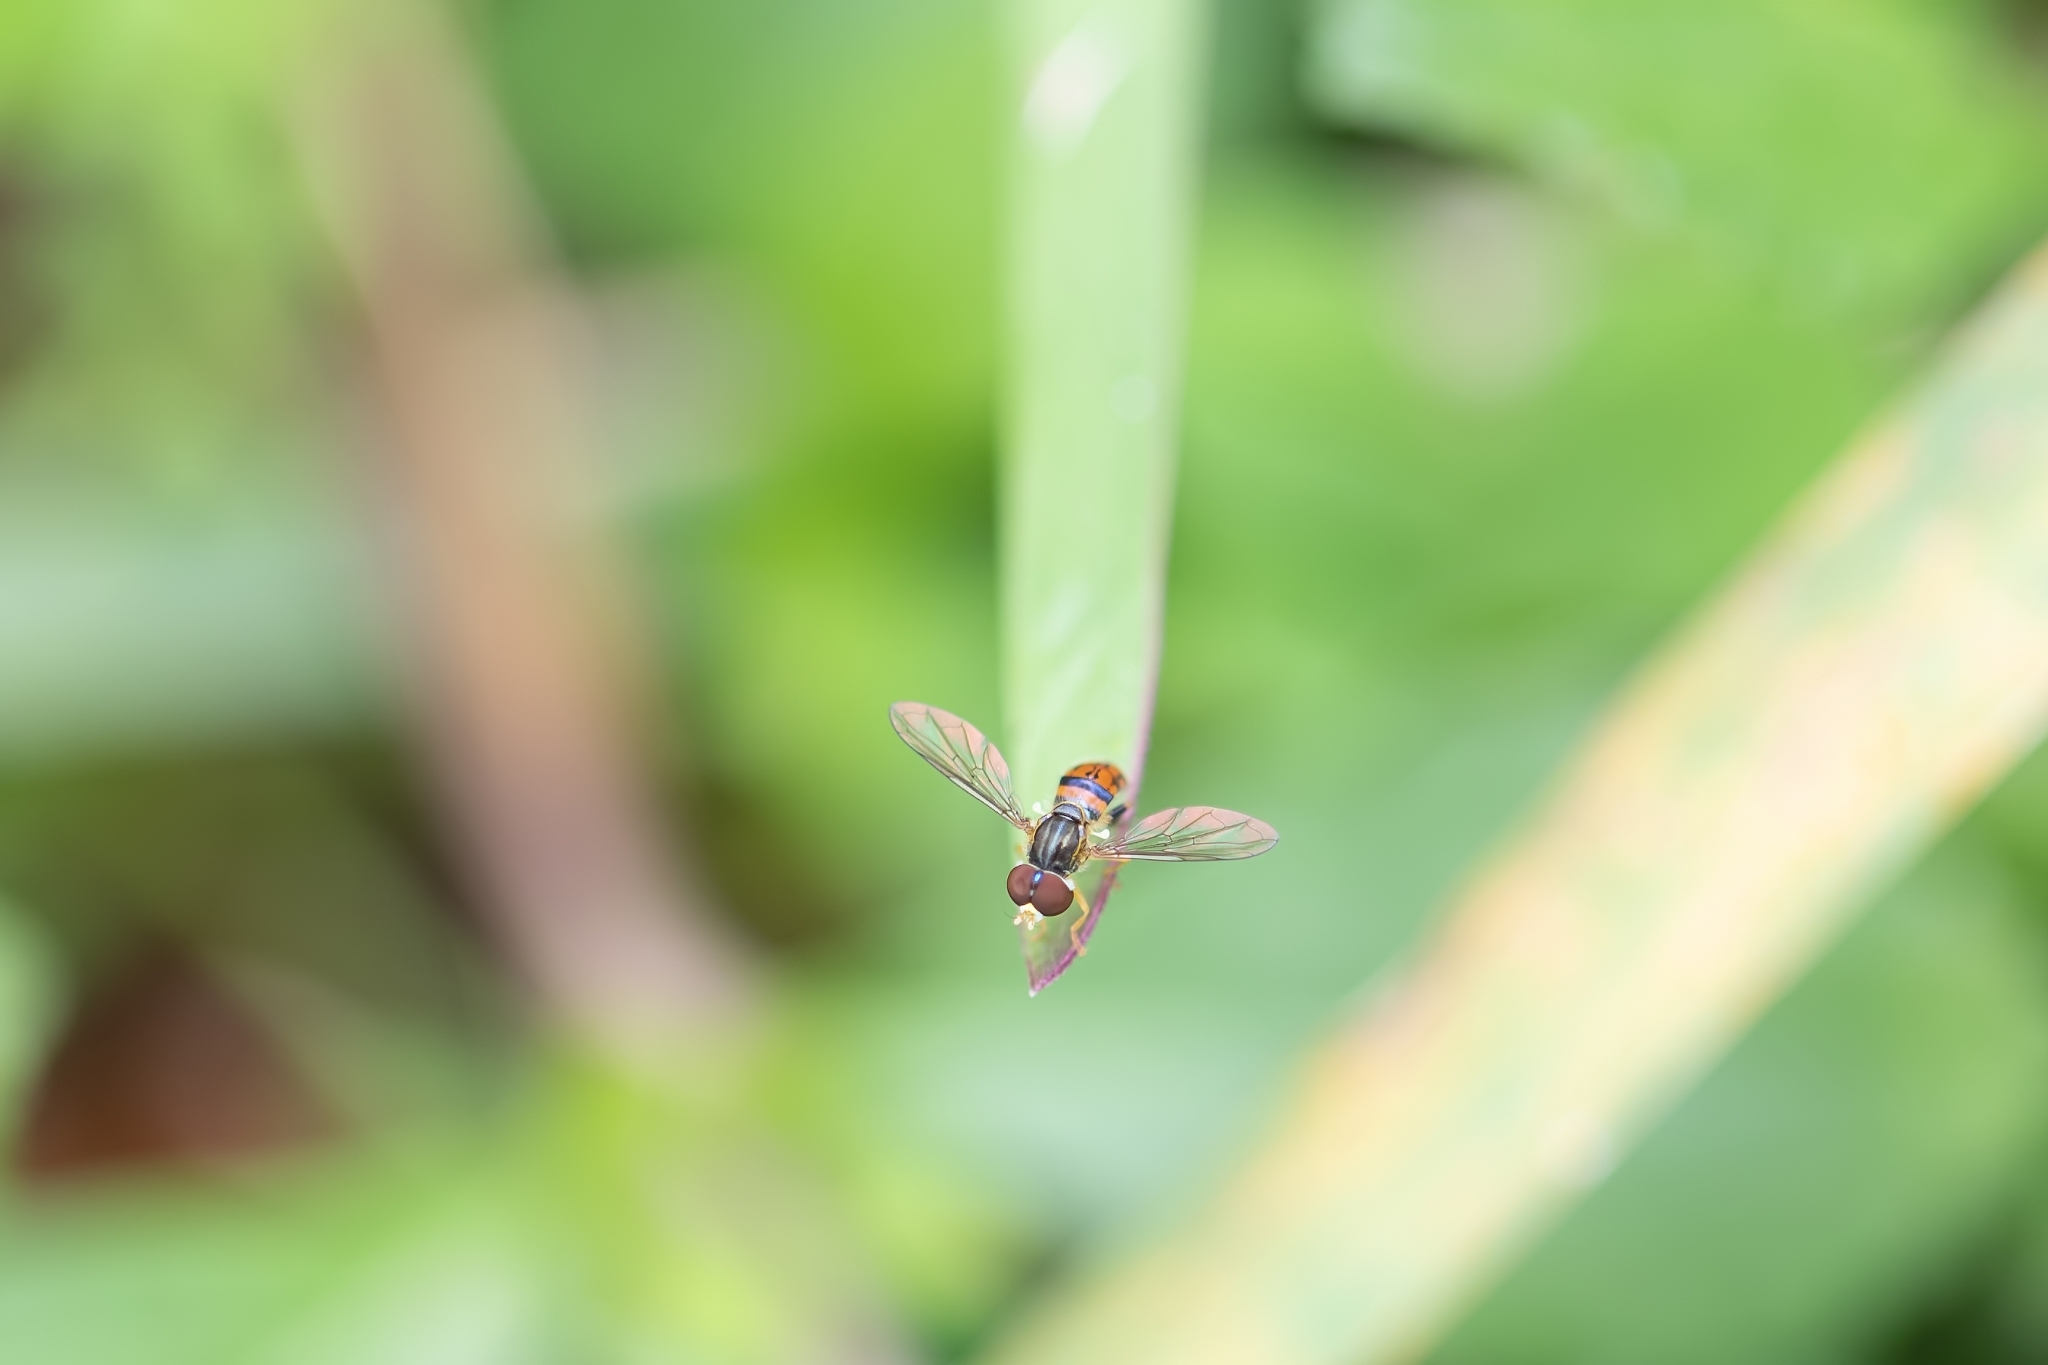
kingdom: Animalia
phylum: Arthropoda
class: Insecta
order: Diptera
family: Syrphidae
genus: Toxomerus
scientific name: Toxomerus boscii
